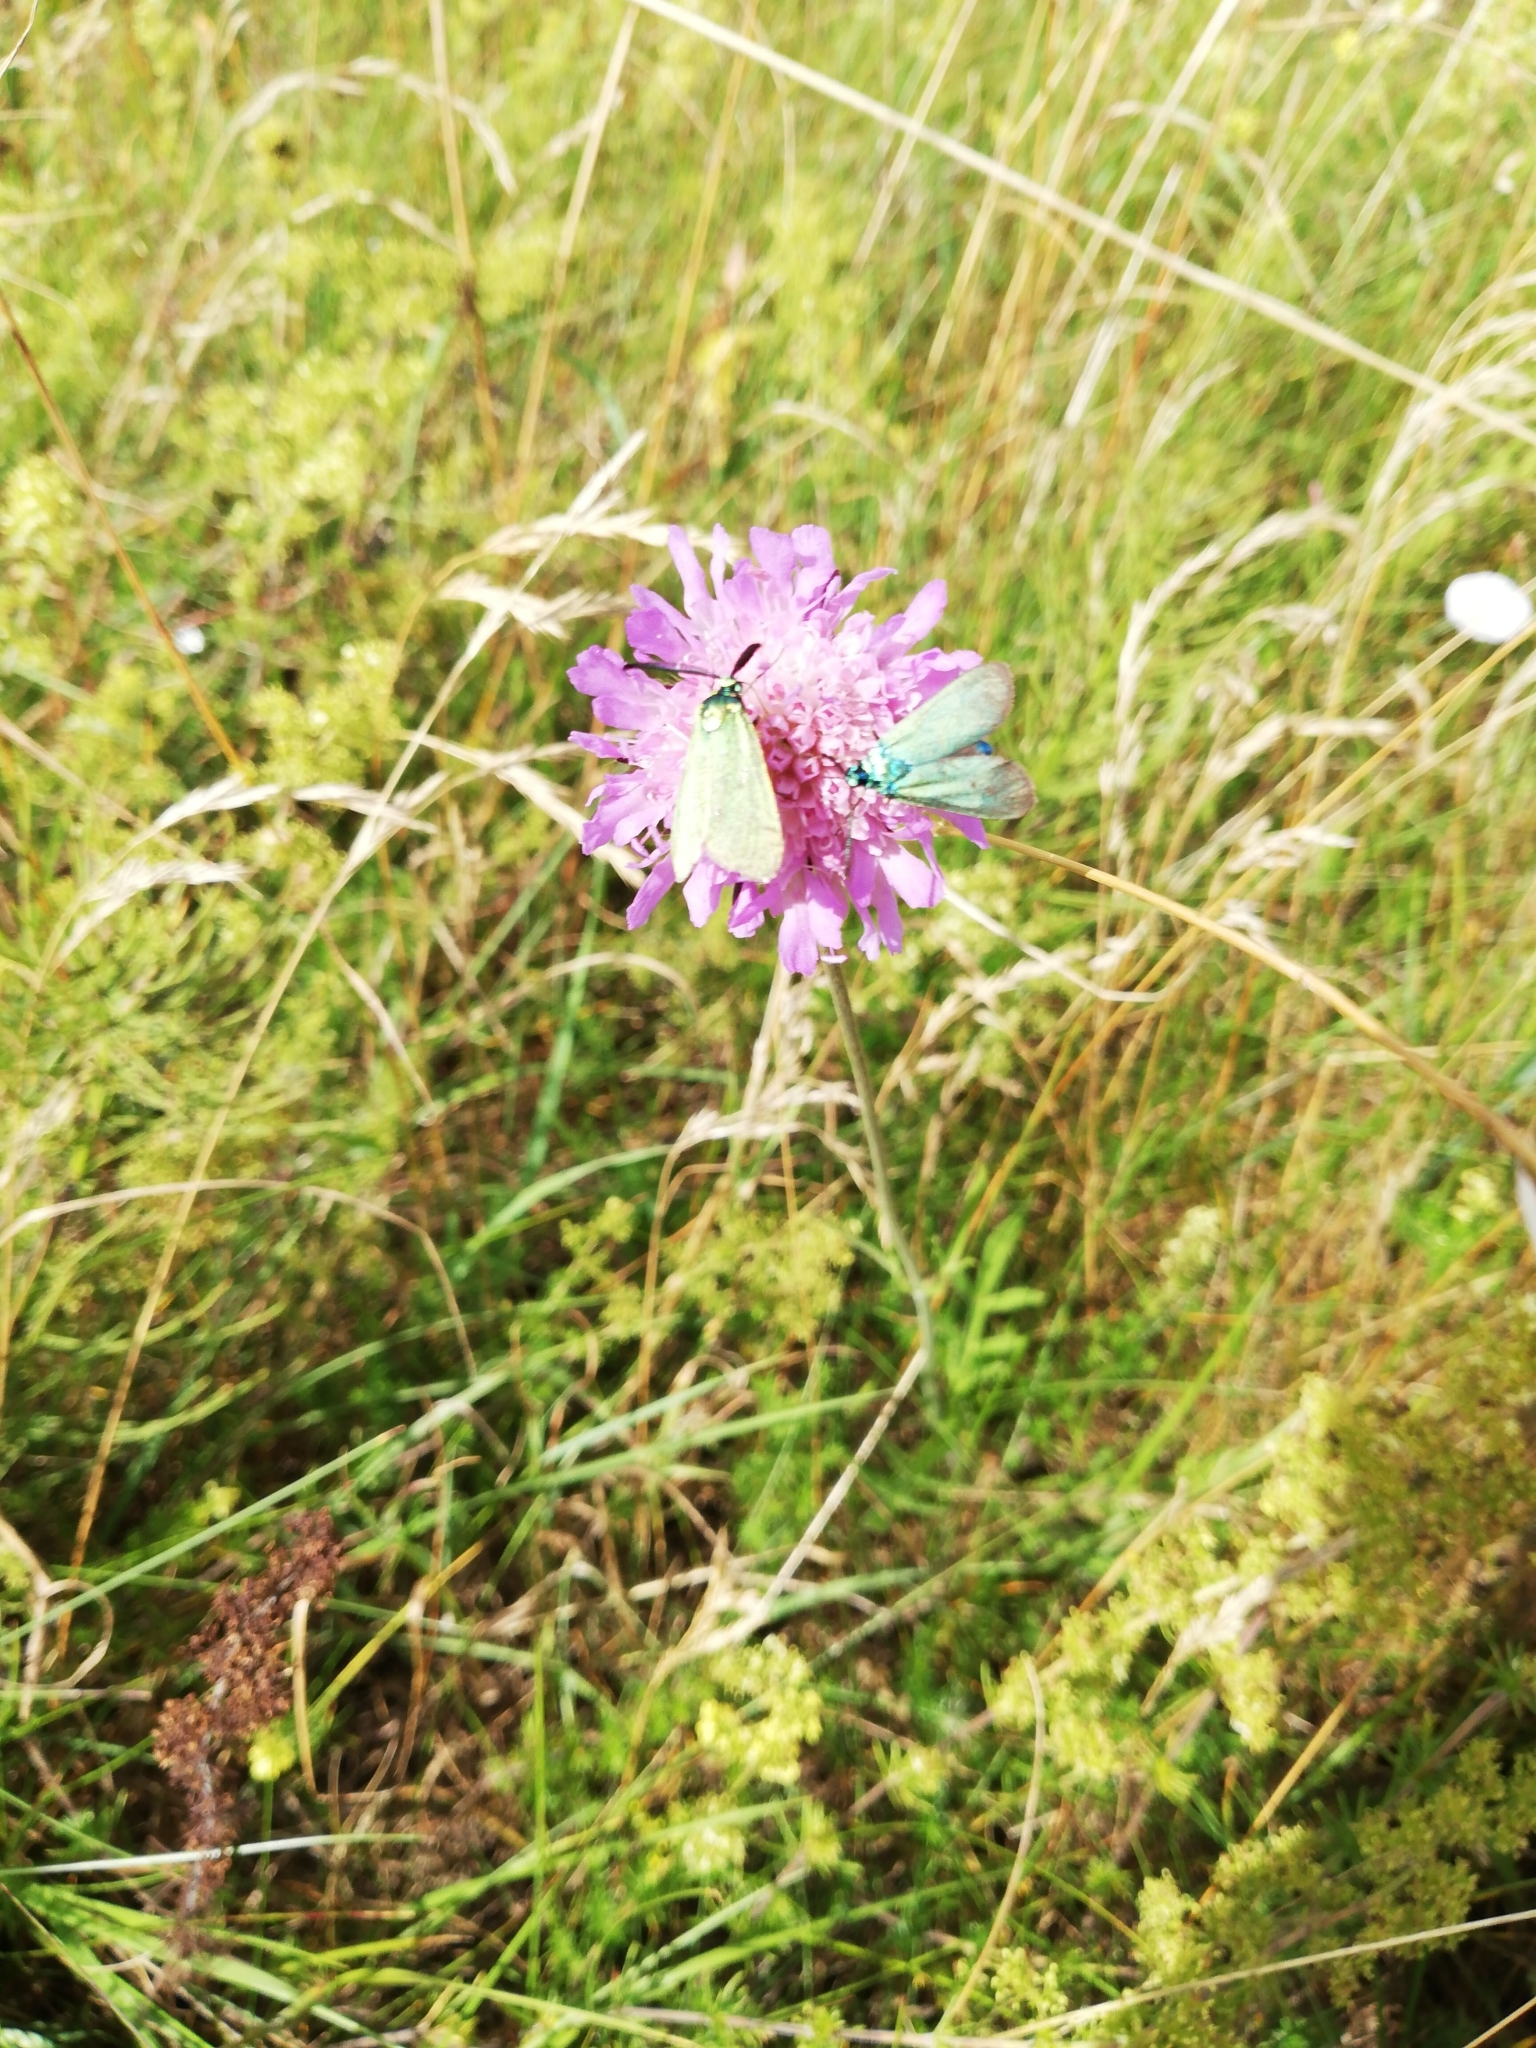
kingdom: Animalia
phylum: Arthropoda
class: Insecta
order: Lepidoptera
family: Zygaenidae
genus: Adscita
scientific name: Adscita statices
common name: Forester
